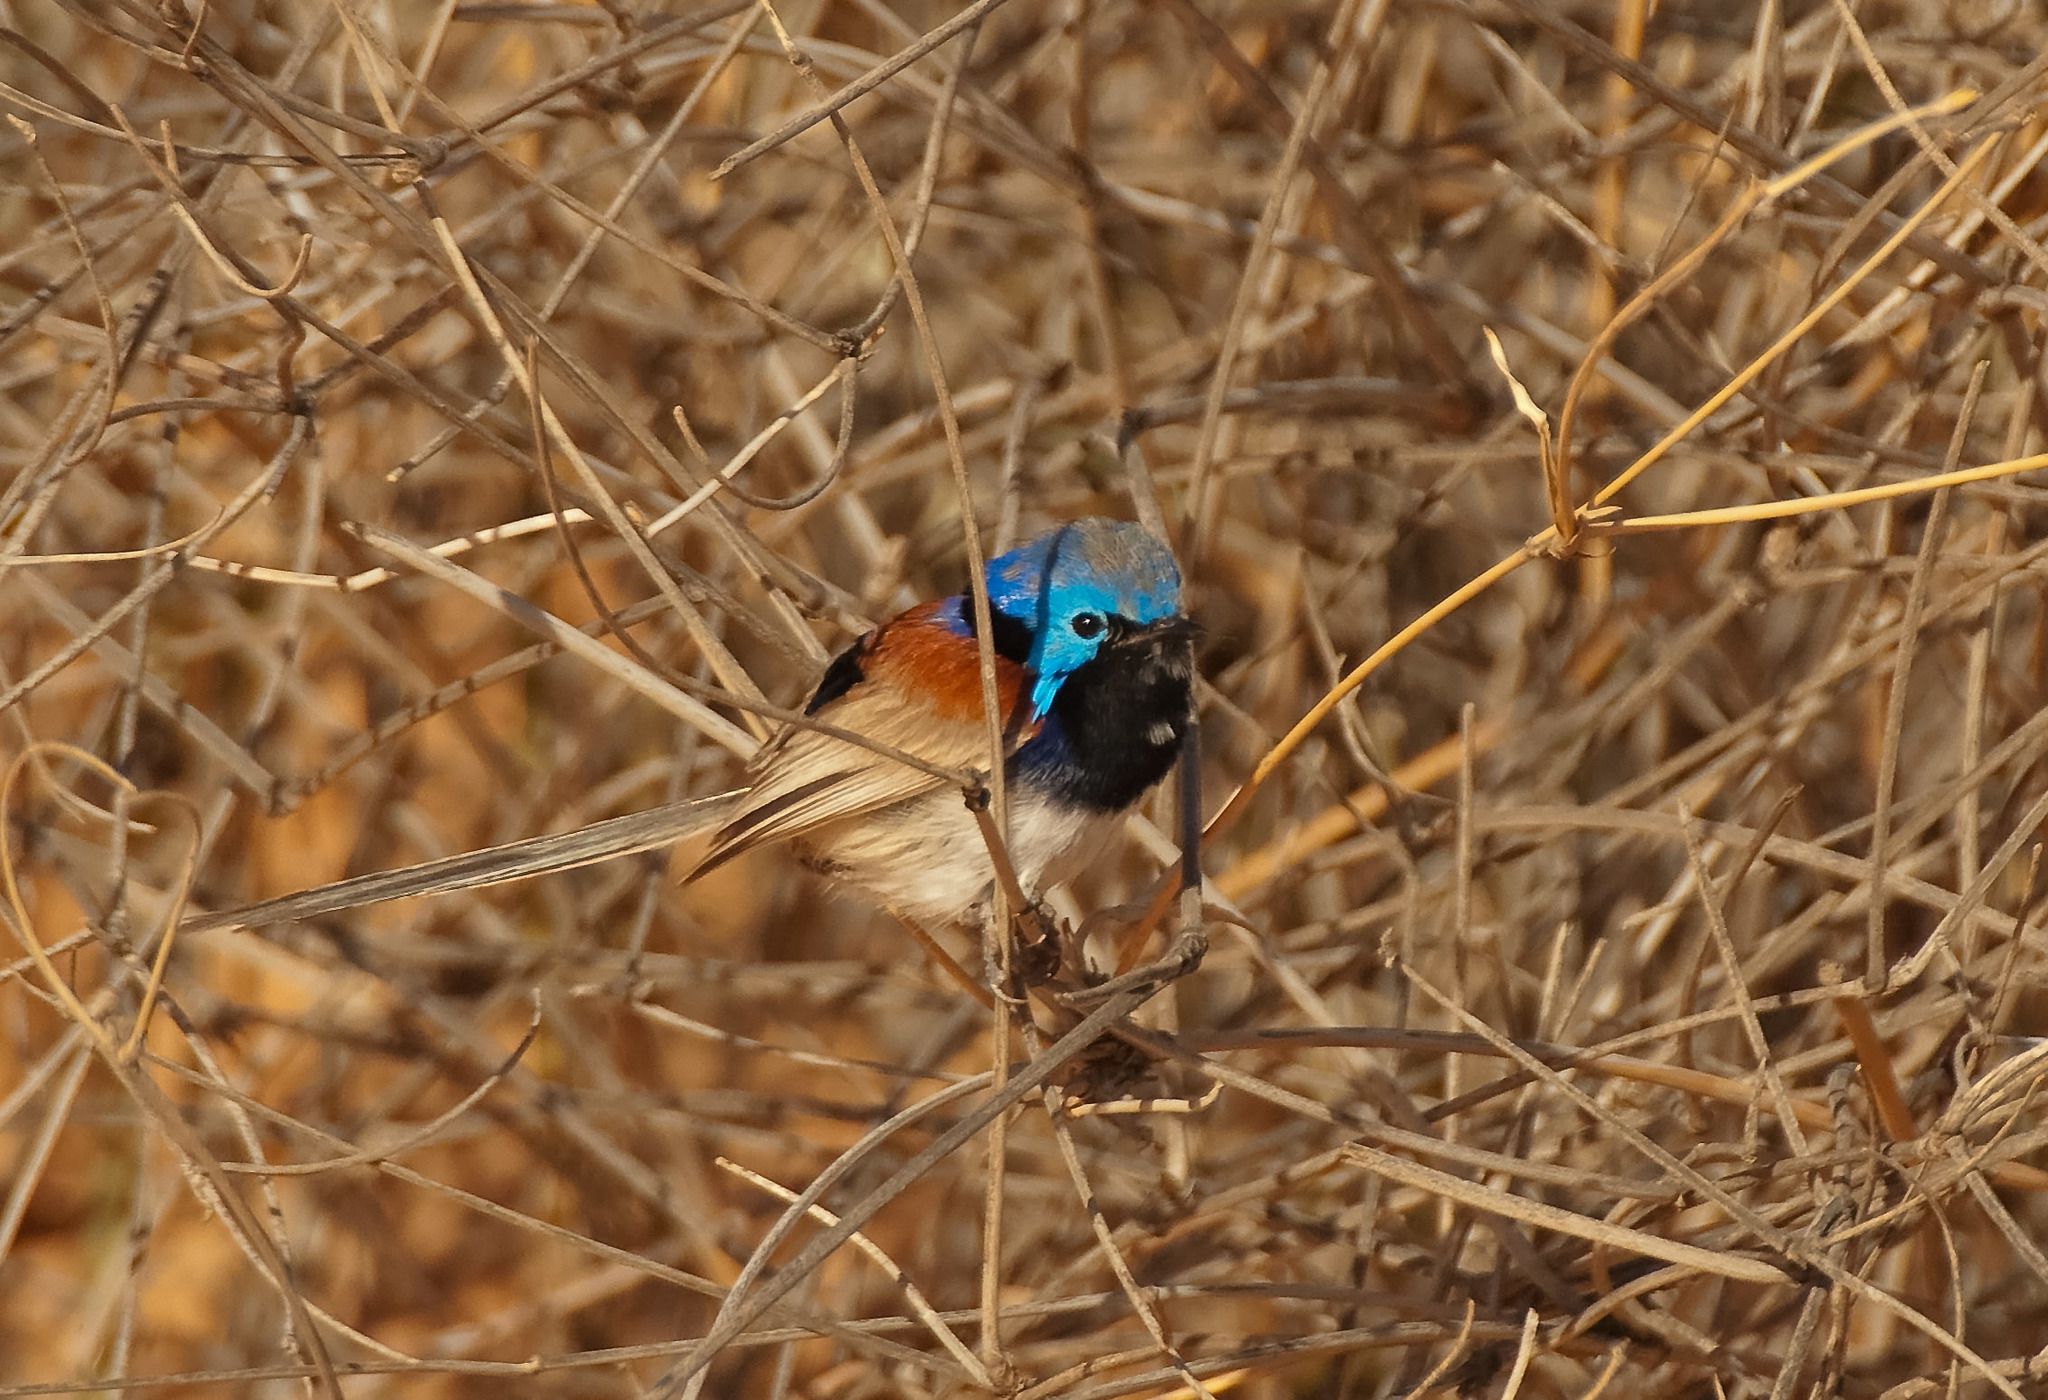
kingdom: Animalia
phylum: Chordata
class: Aves
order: Passeriformes
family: Maluridae
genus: Malurus
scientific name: Malurus assimilis
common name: Purple-backed fairywren
